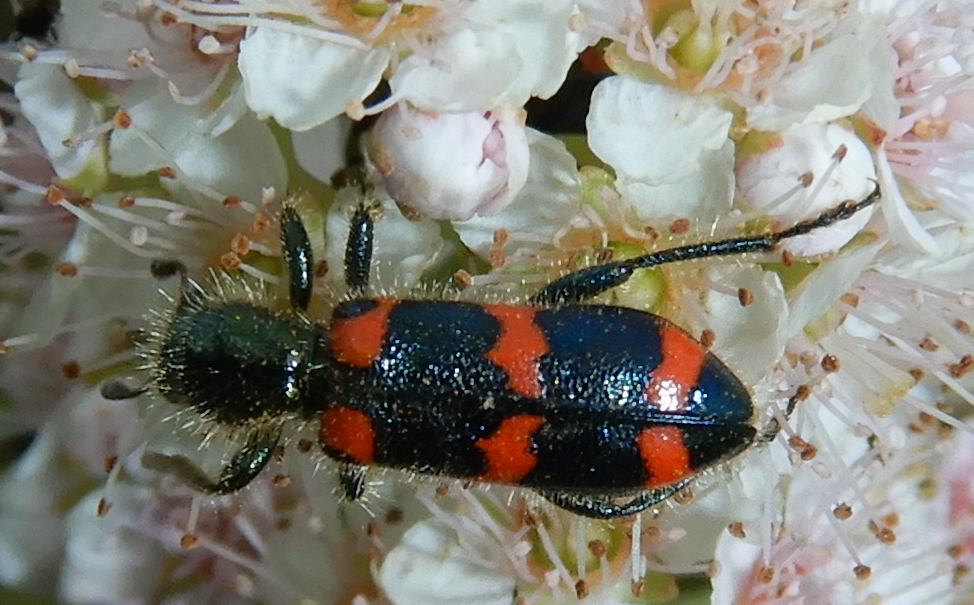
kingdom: Animalia
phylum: Arthropoda
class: Insecta
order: Coleoptera
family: Cleridae
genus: Trichodes
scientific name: Trichodes nutalli
